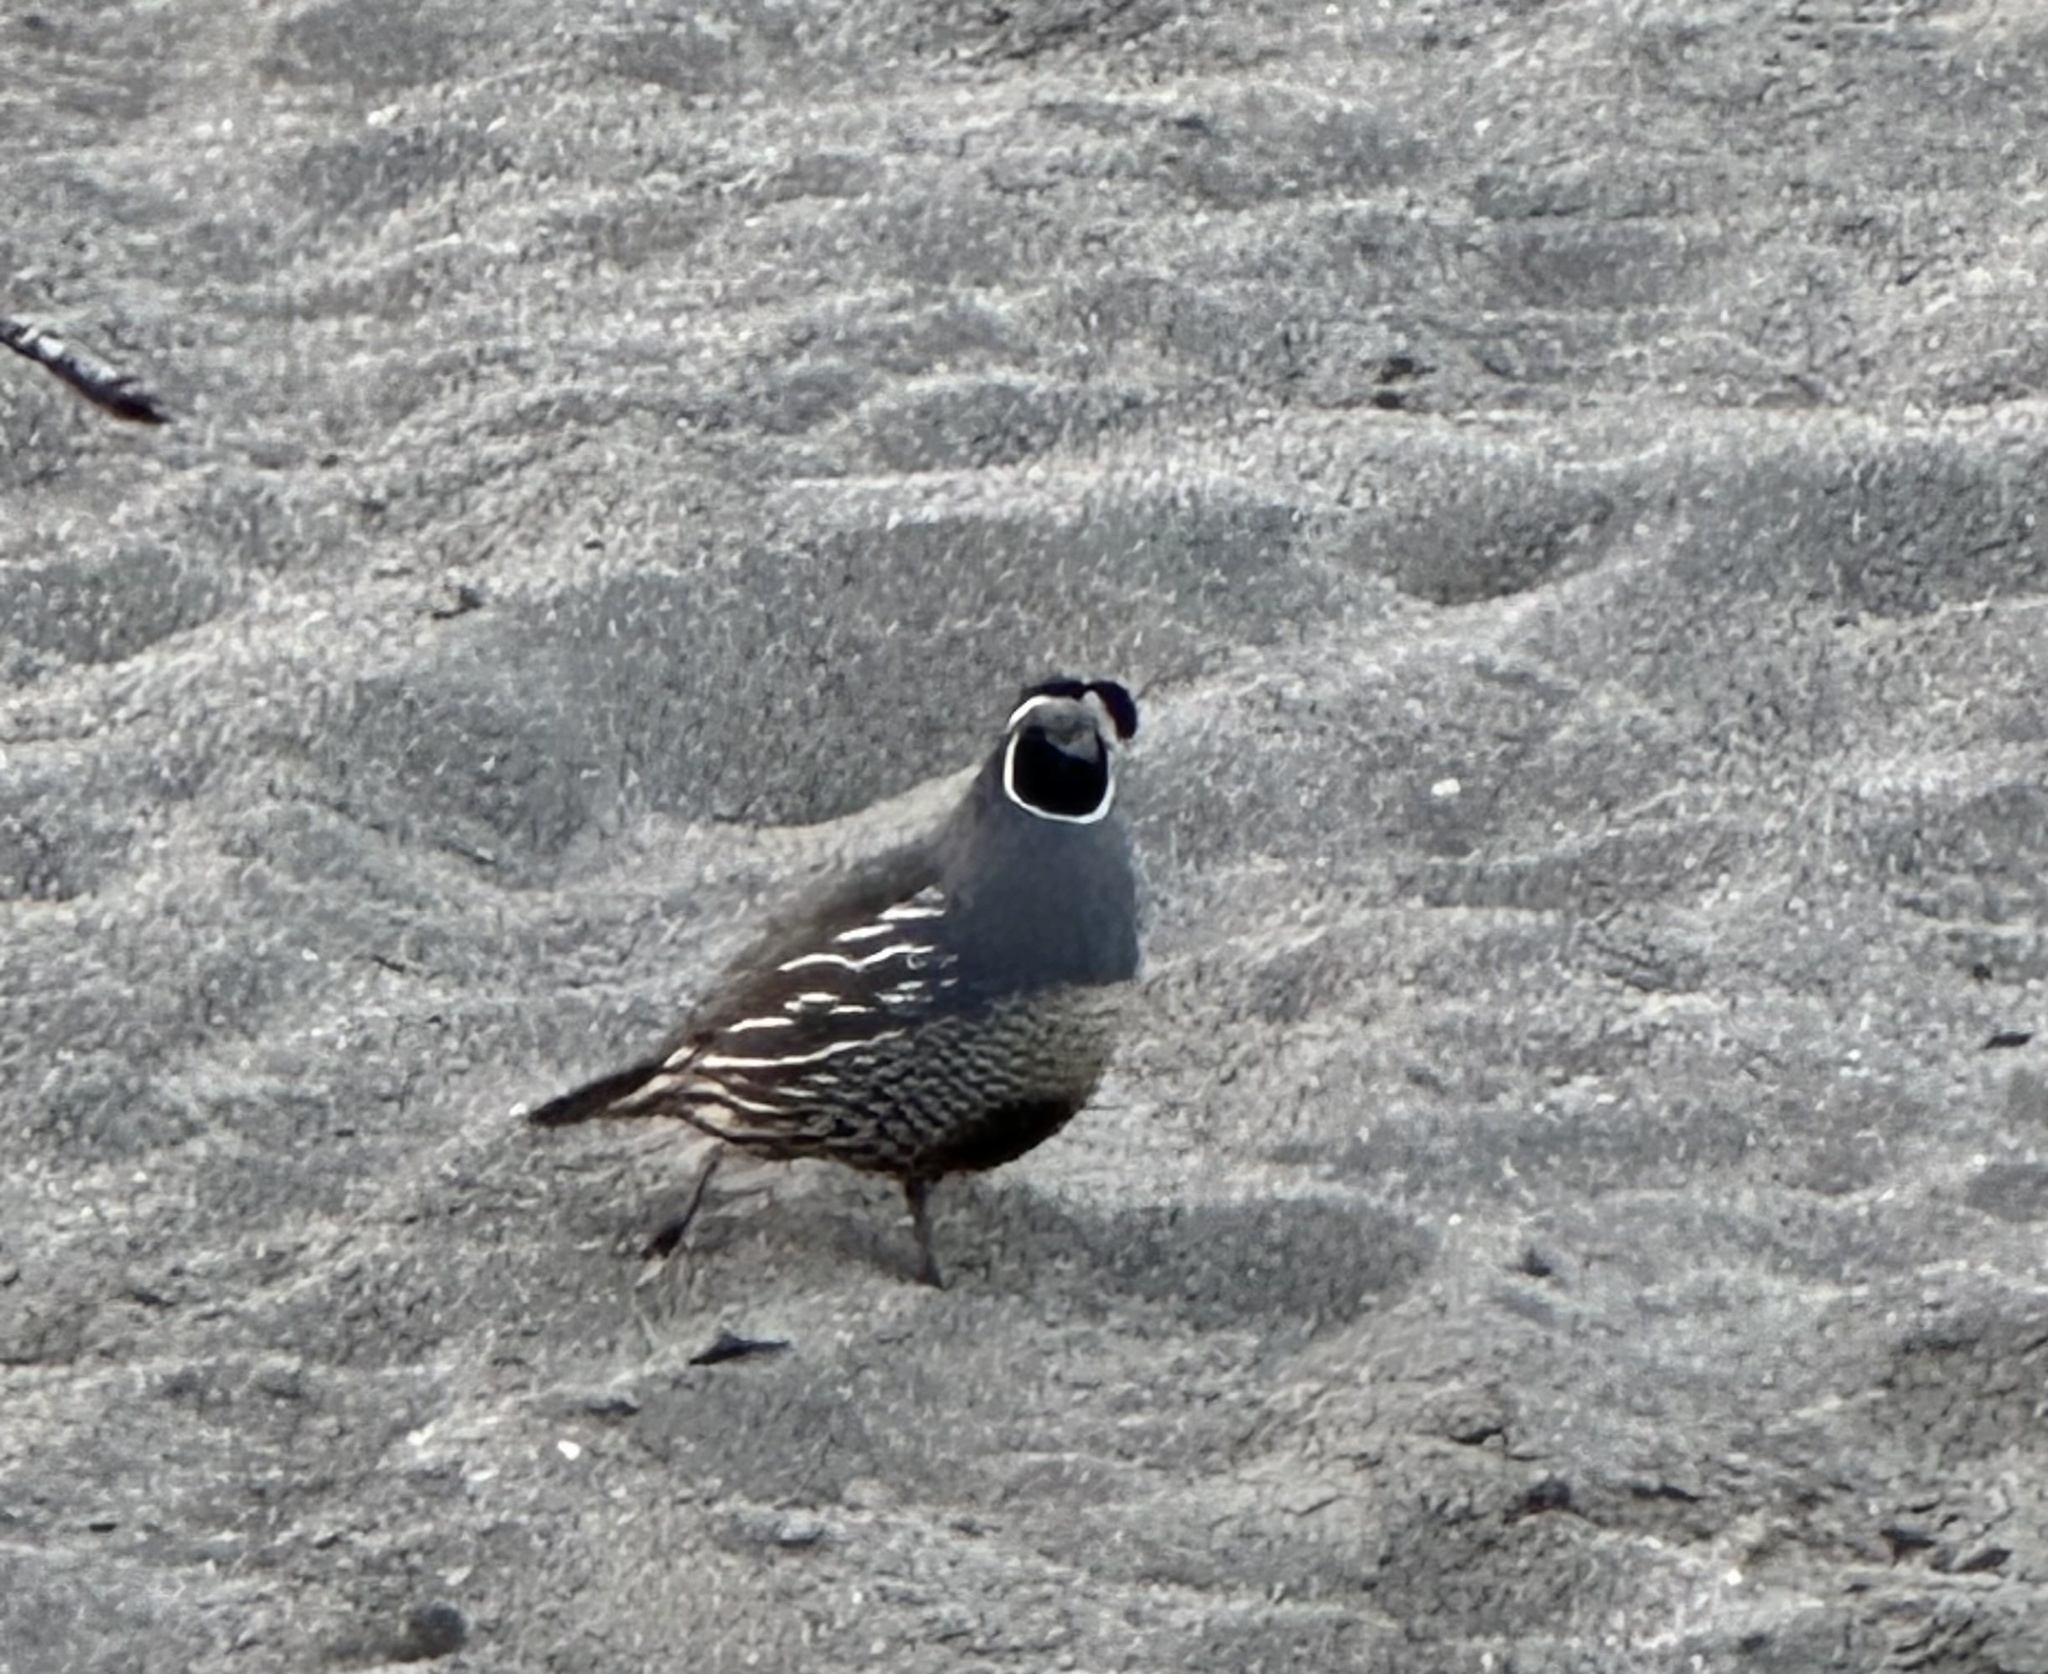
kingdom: Animalia
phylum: Chordata
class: Aves
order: Galliformes
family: Odontophoridae
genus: Callipepla
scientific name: Callipepla californica
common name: California quail
